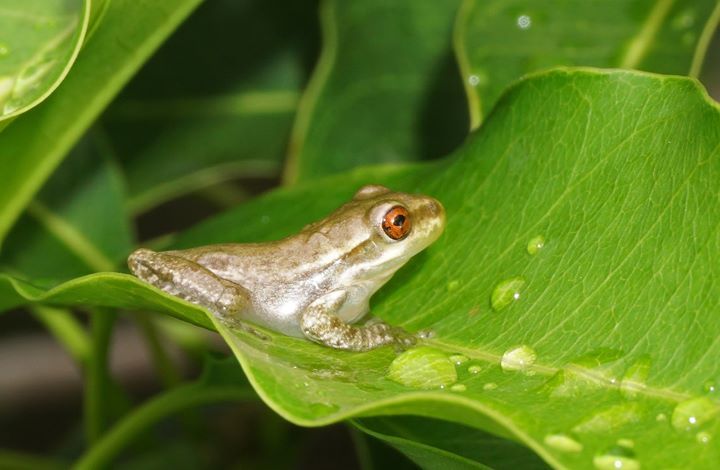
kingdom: Animalia
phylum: Chordata
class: Amphibia
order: Anura
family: Hylidae
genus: Osteopilus
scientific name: Osteopilus septentrionalis
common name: Cuban treefrog
